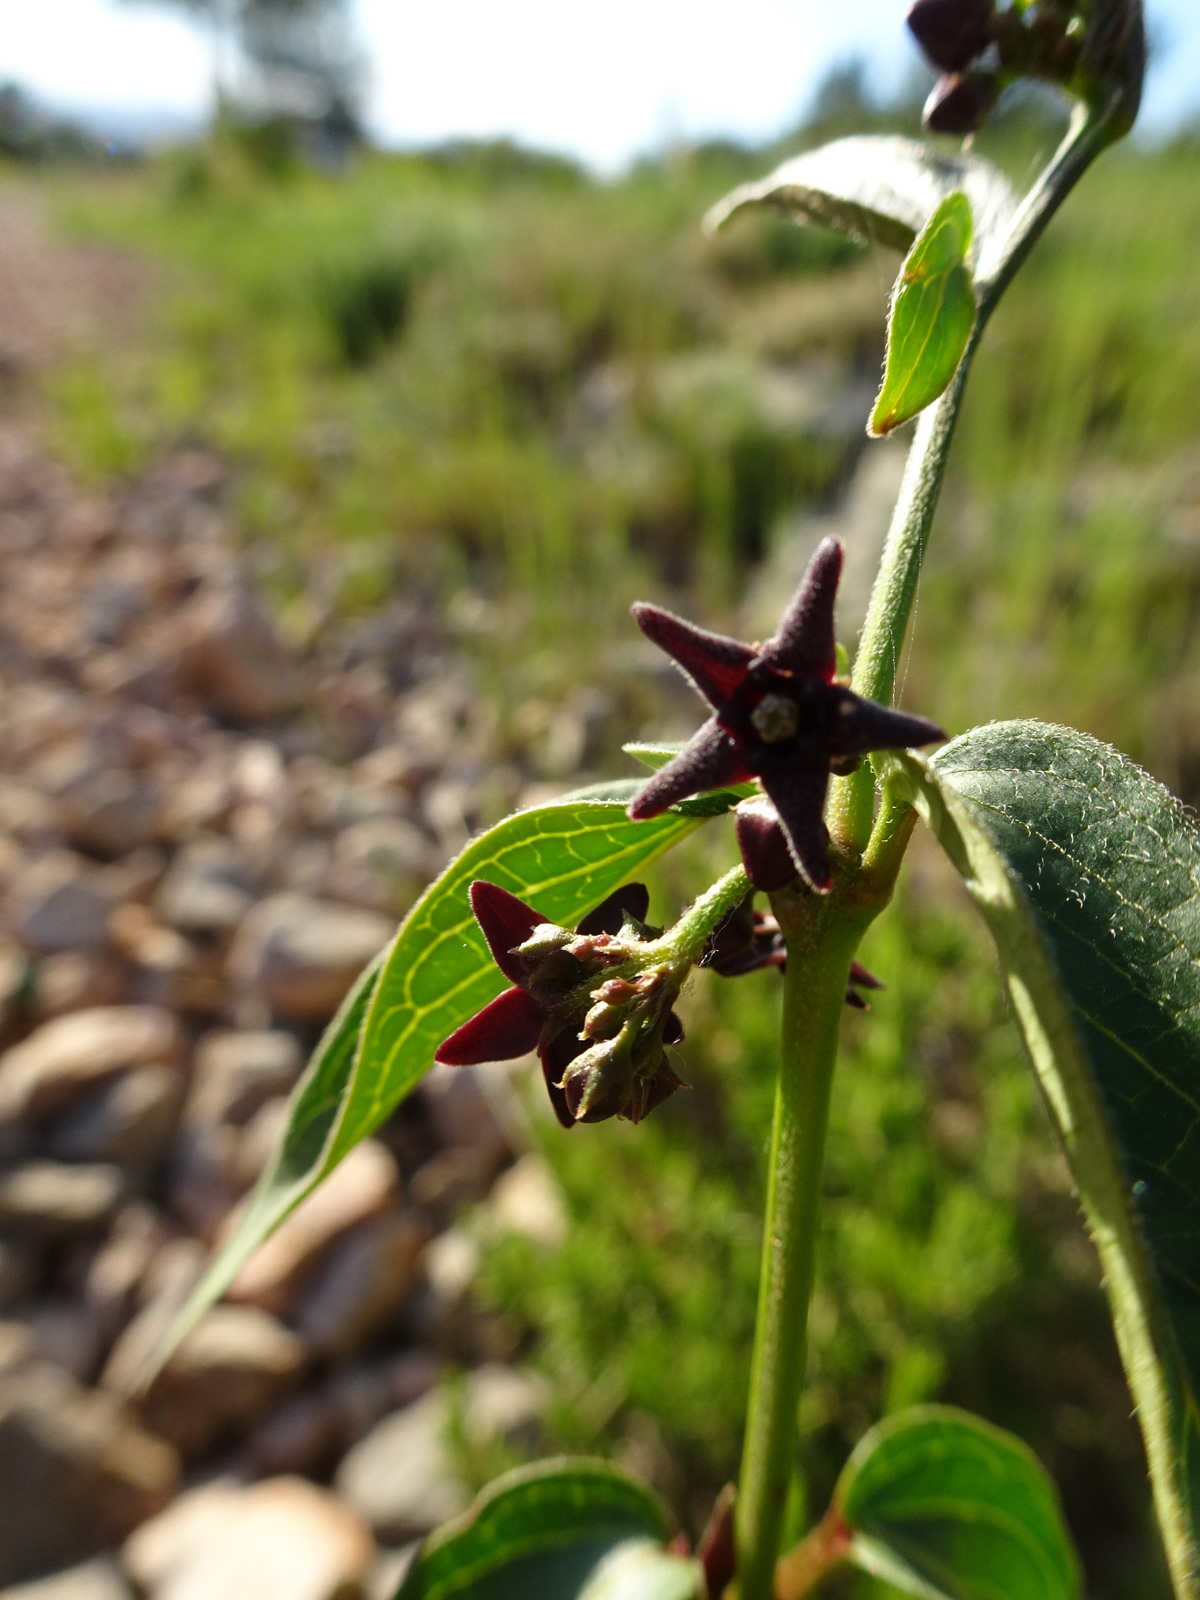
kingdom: Plantae
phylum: Tracheophyta
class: Magnoliopsida
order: Gentianales
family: Apocynaceae
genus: Vincetoxicum
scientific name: Vincetoxicum nigrum
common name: Black swallow-wort
